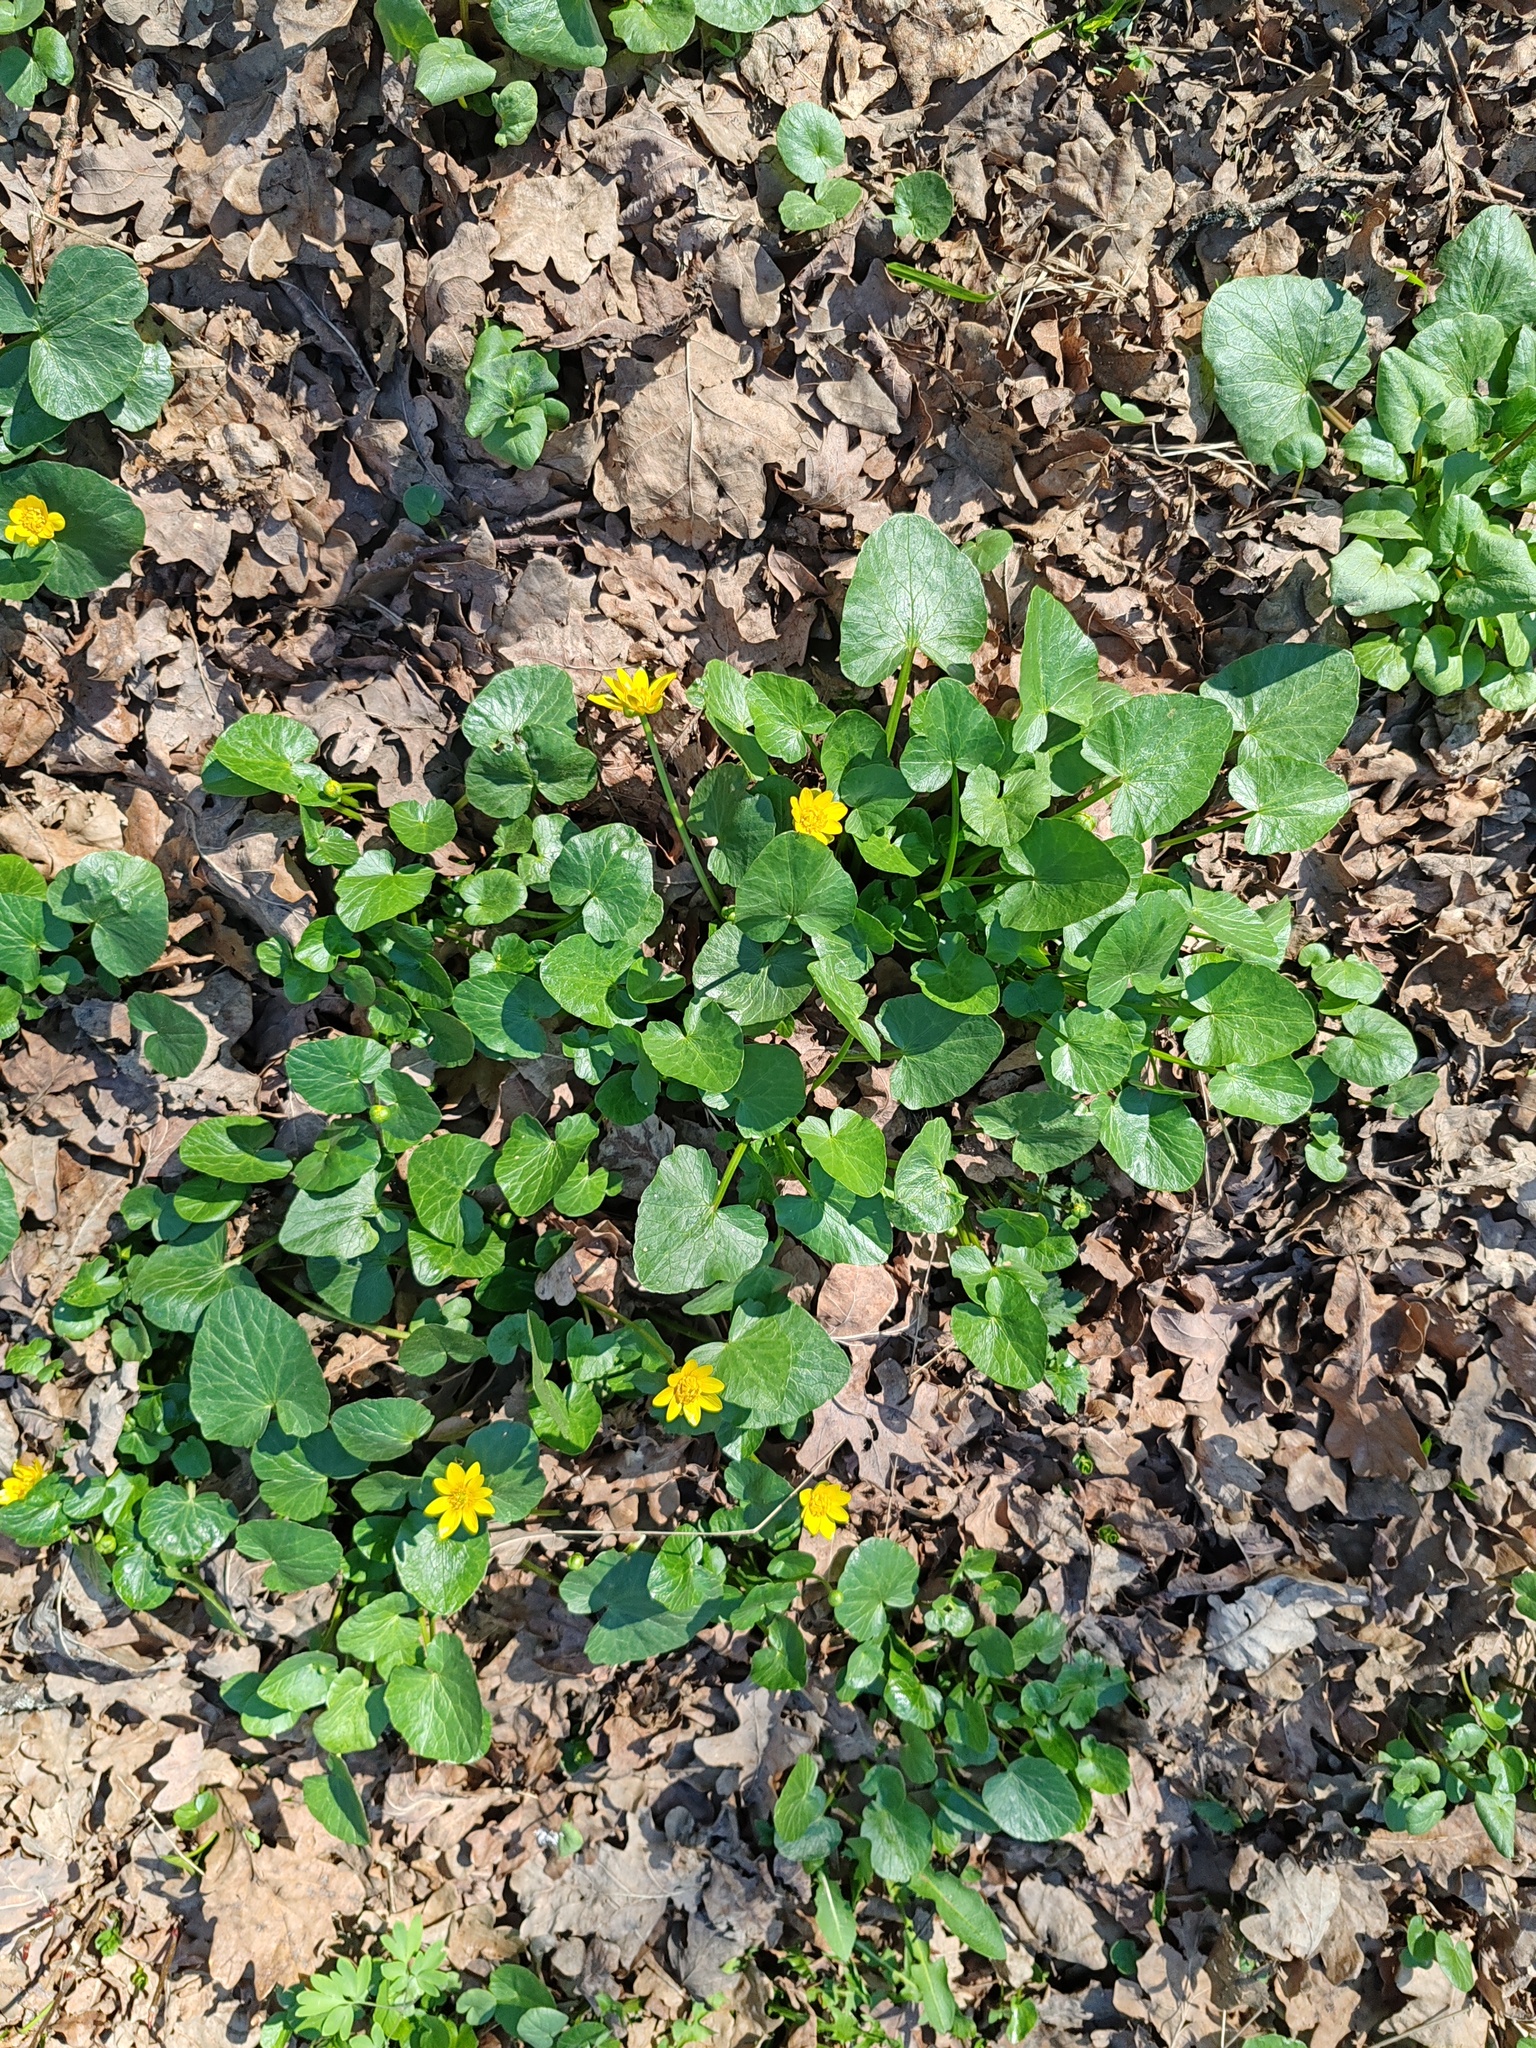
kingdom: Plantae
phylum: Tracheophyta
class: Magnoliopsida
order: Ranunculales
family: Ranunculaceae
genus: Ficaria
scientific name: Ficaria verna
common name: Lesser celandine
